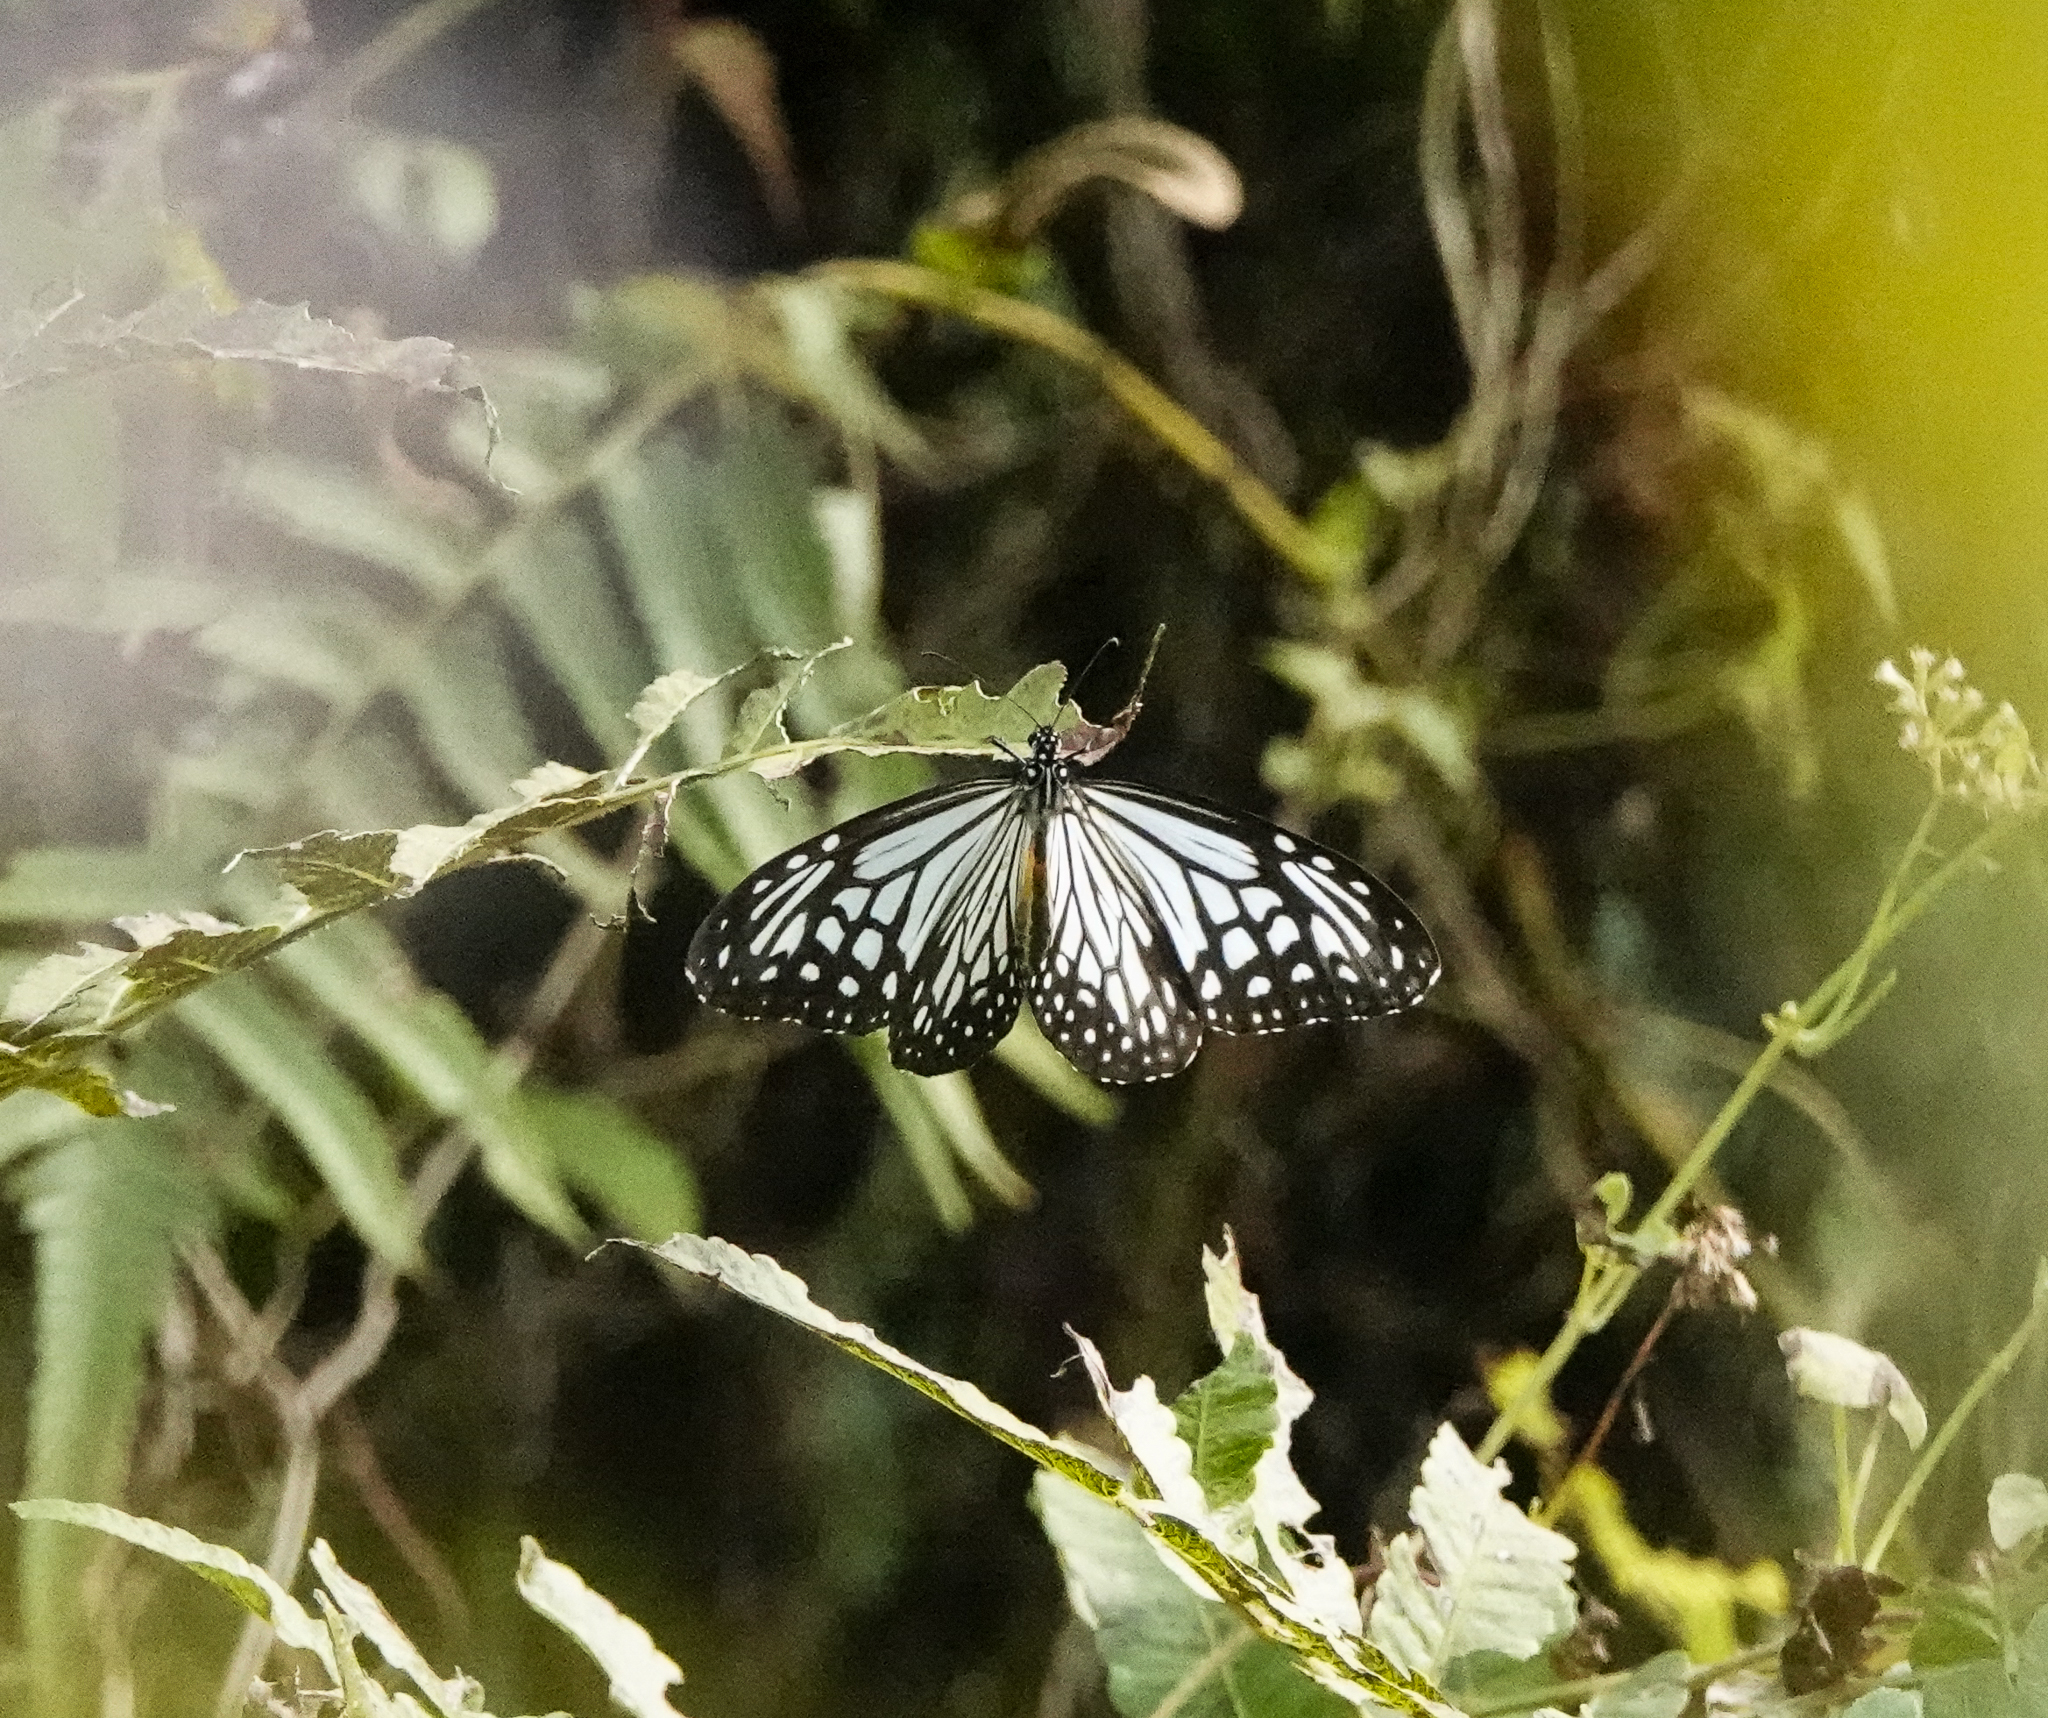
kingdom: Animalia
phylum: Arthropoda
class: Insecta
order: Lepidoptera
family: Nymphalidae
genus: Parantica
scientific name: Parantica aglea
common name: Glassy tiger
